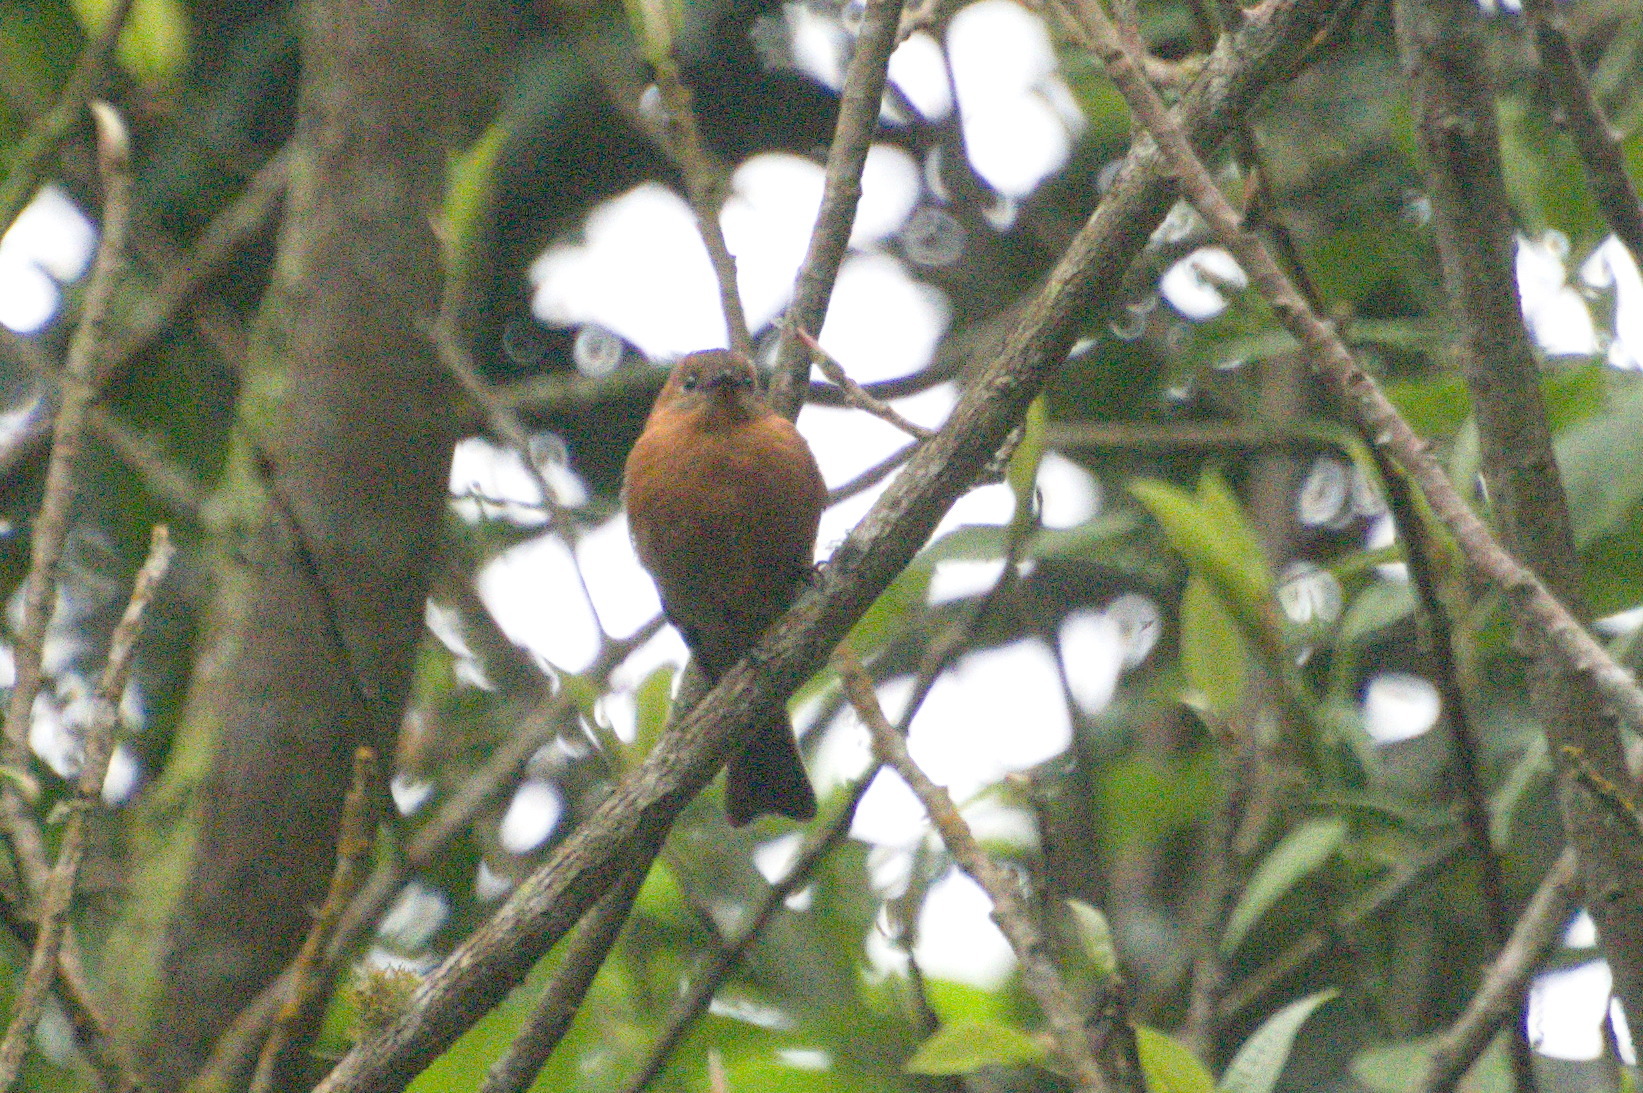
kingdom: Animalia
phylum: Chordata
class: Aves
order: Passeriformes
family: Tyrannidae
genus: Pyrrhomyias
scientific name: Pyrrhomyias cinnamomeus
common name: Cinnamon flycatcher
